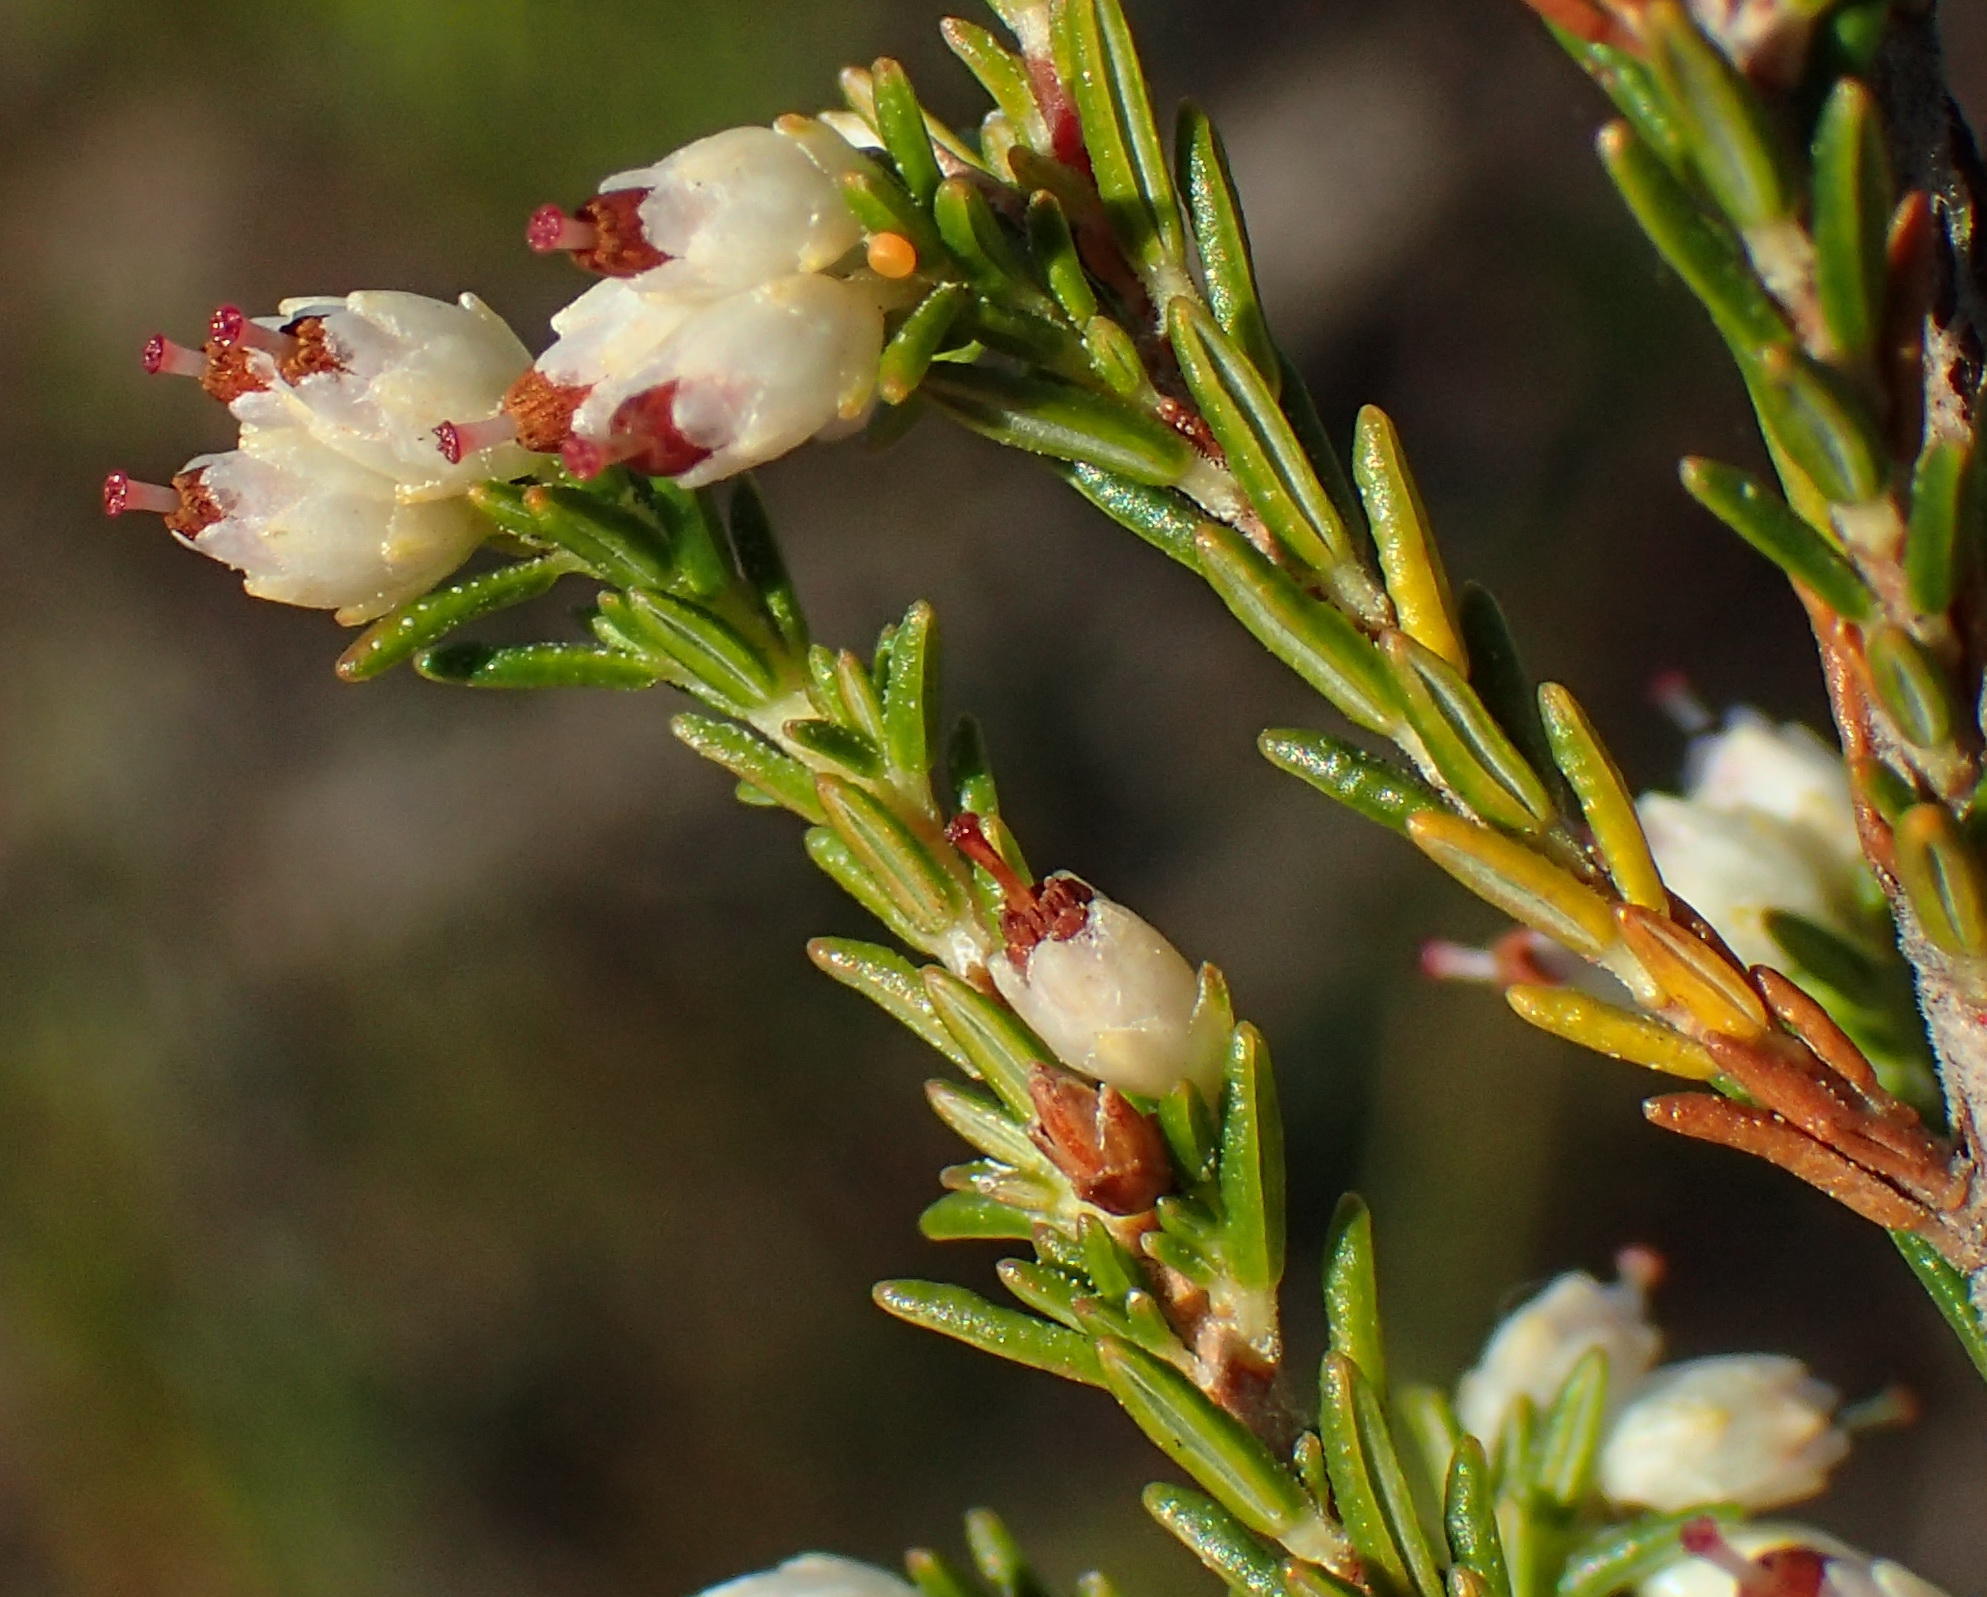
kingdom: Plantae
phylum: Tracheophyta
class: Magnoliopsida
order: Ericales
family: Ericaceae
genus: Erica
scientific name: Erica lasciva
